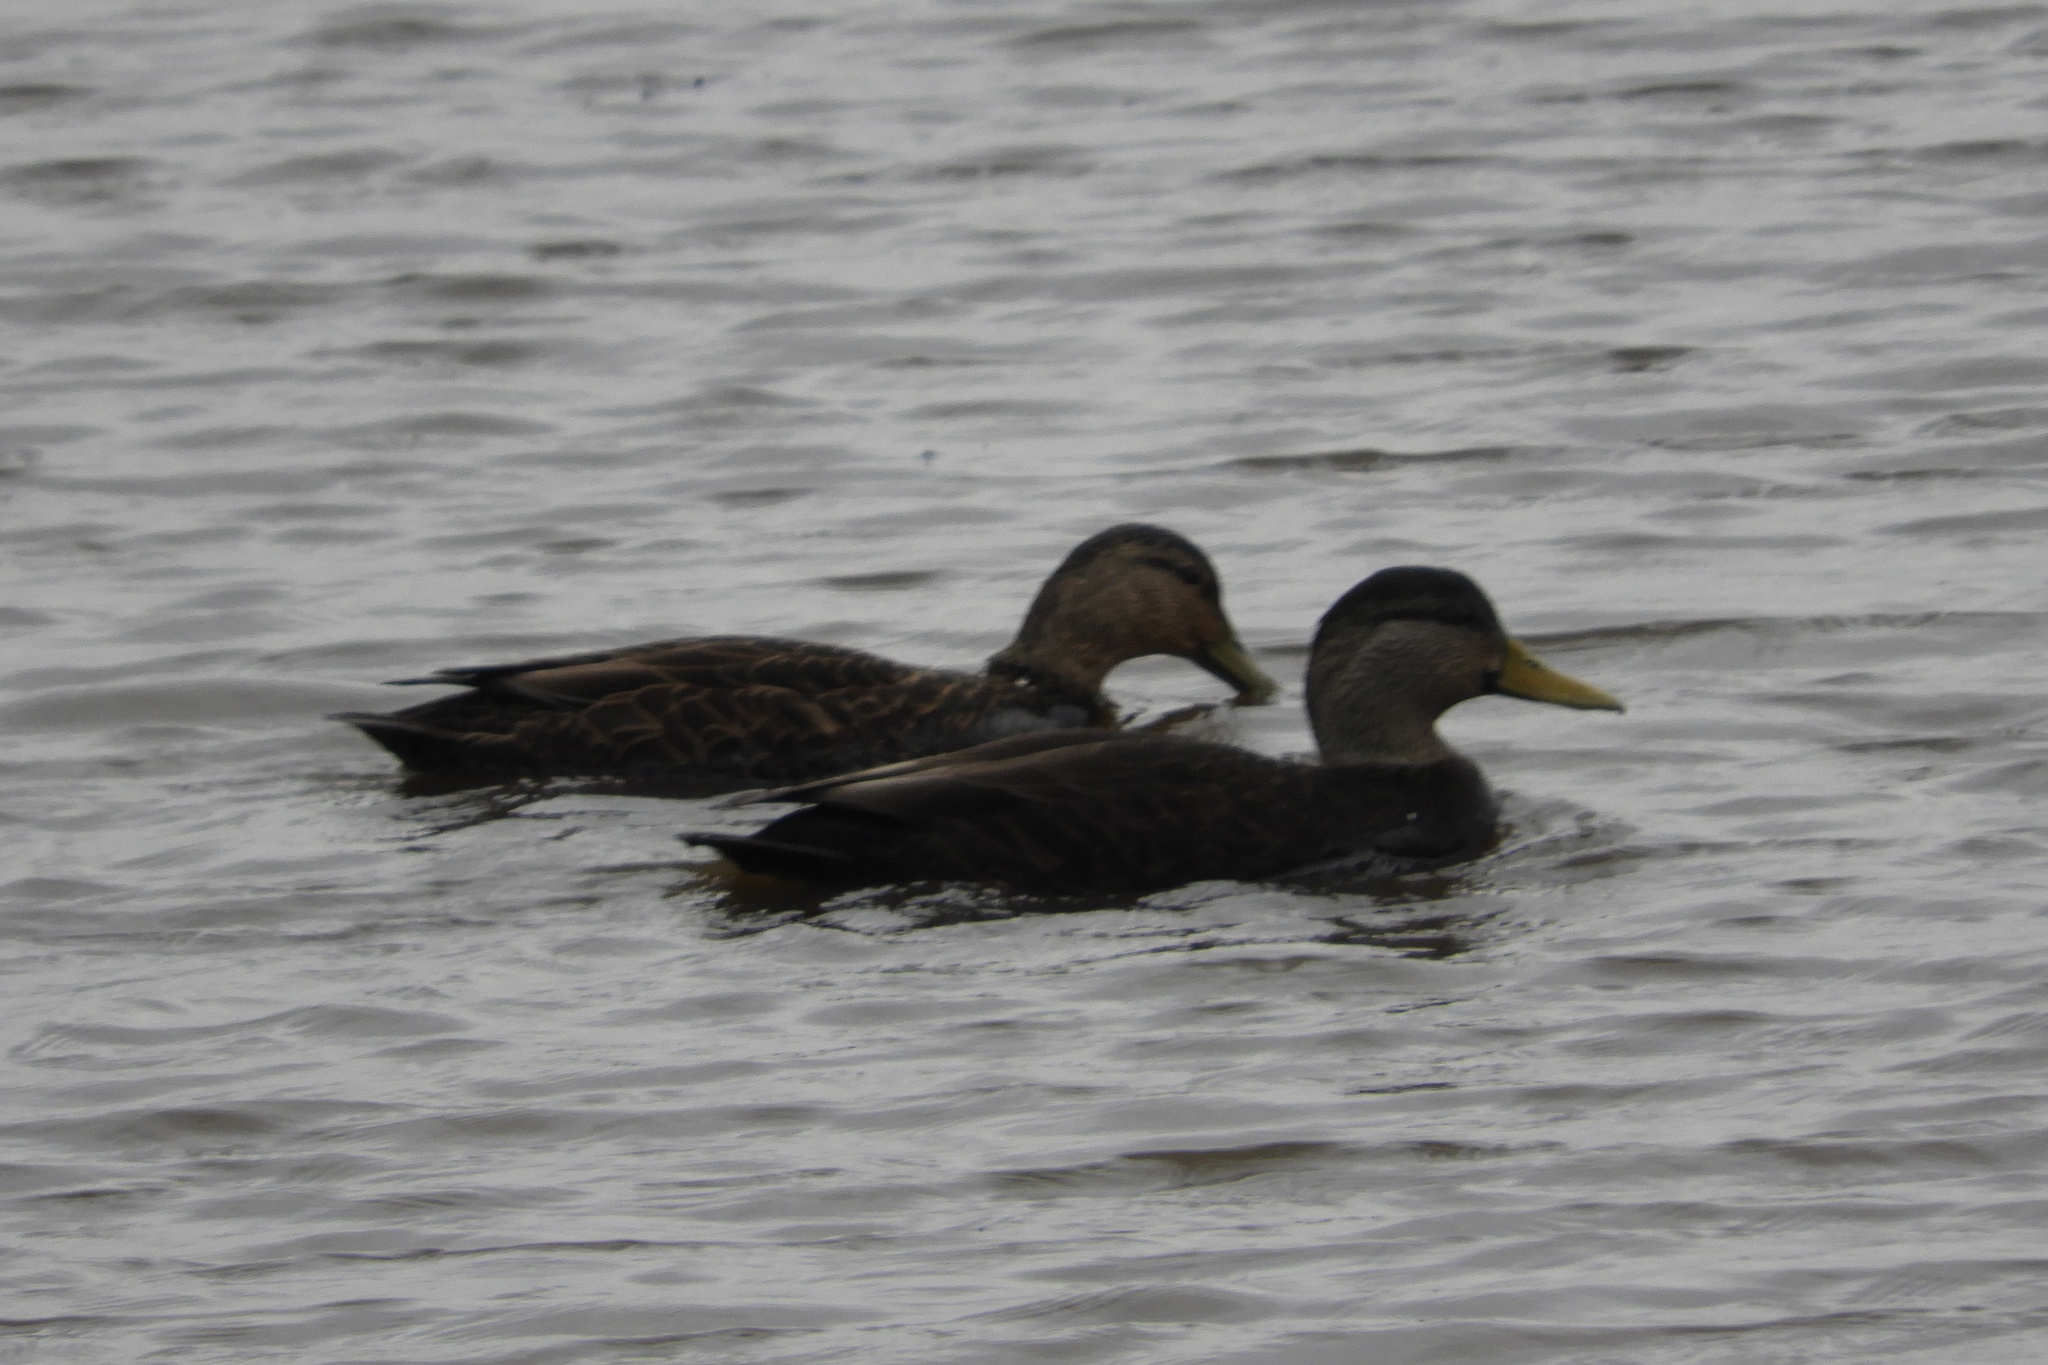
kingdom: Animalia
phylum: Chordata
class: Aves
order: Anseriformes
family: Anatidae
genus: Anas
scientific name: Anas rubripes
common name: American black duck
